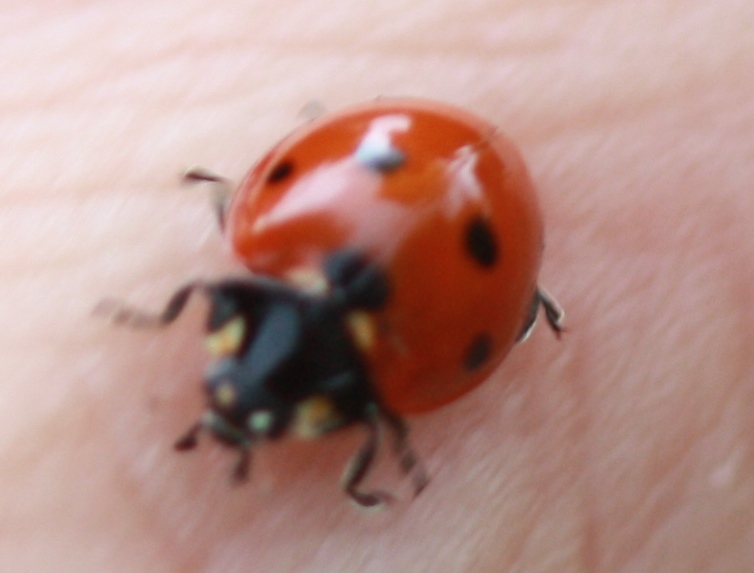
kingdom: Animalia
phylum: Arthropoda
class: Insecta
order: Coleoptera
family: Coccinellidae
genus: Coccinella
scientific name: Coccinella septempunctata
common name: Sevenspotted lady beetle
